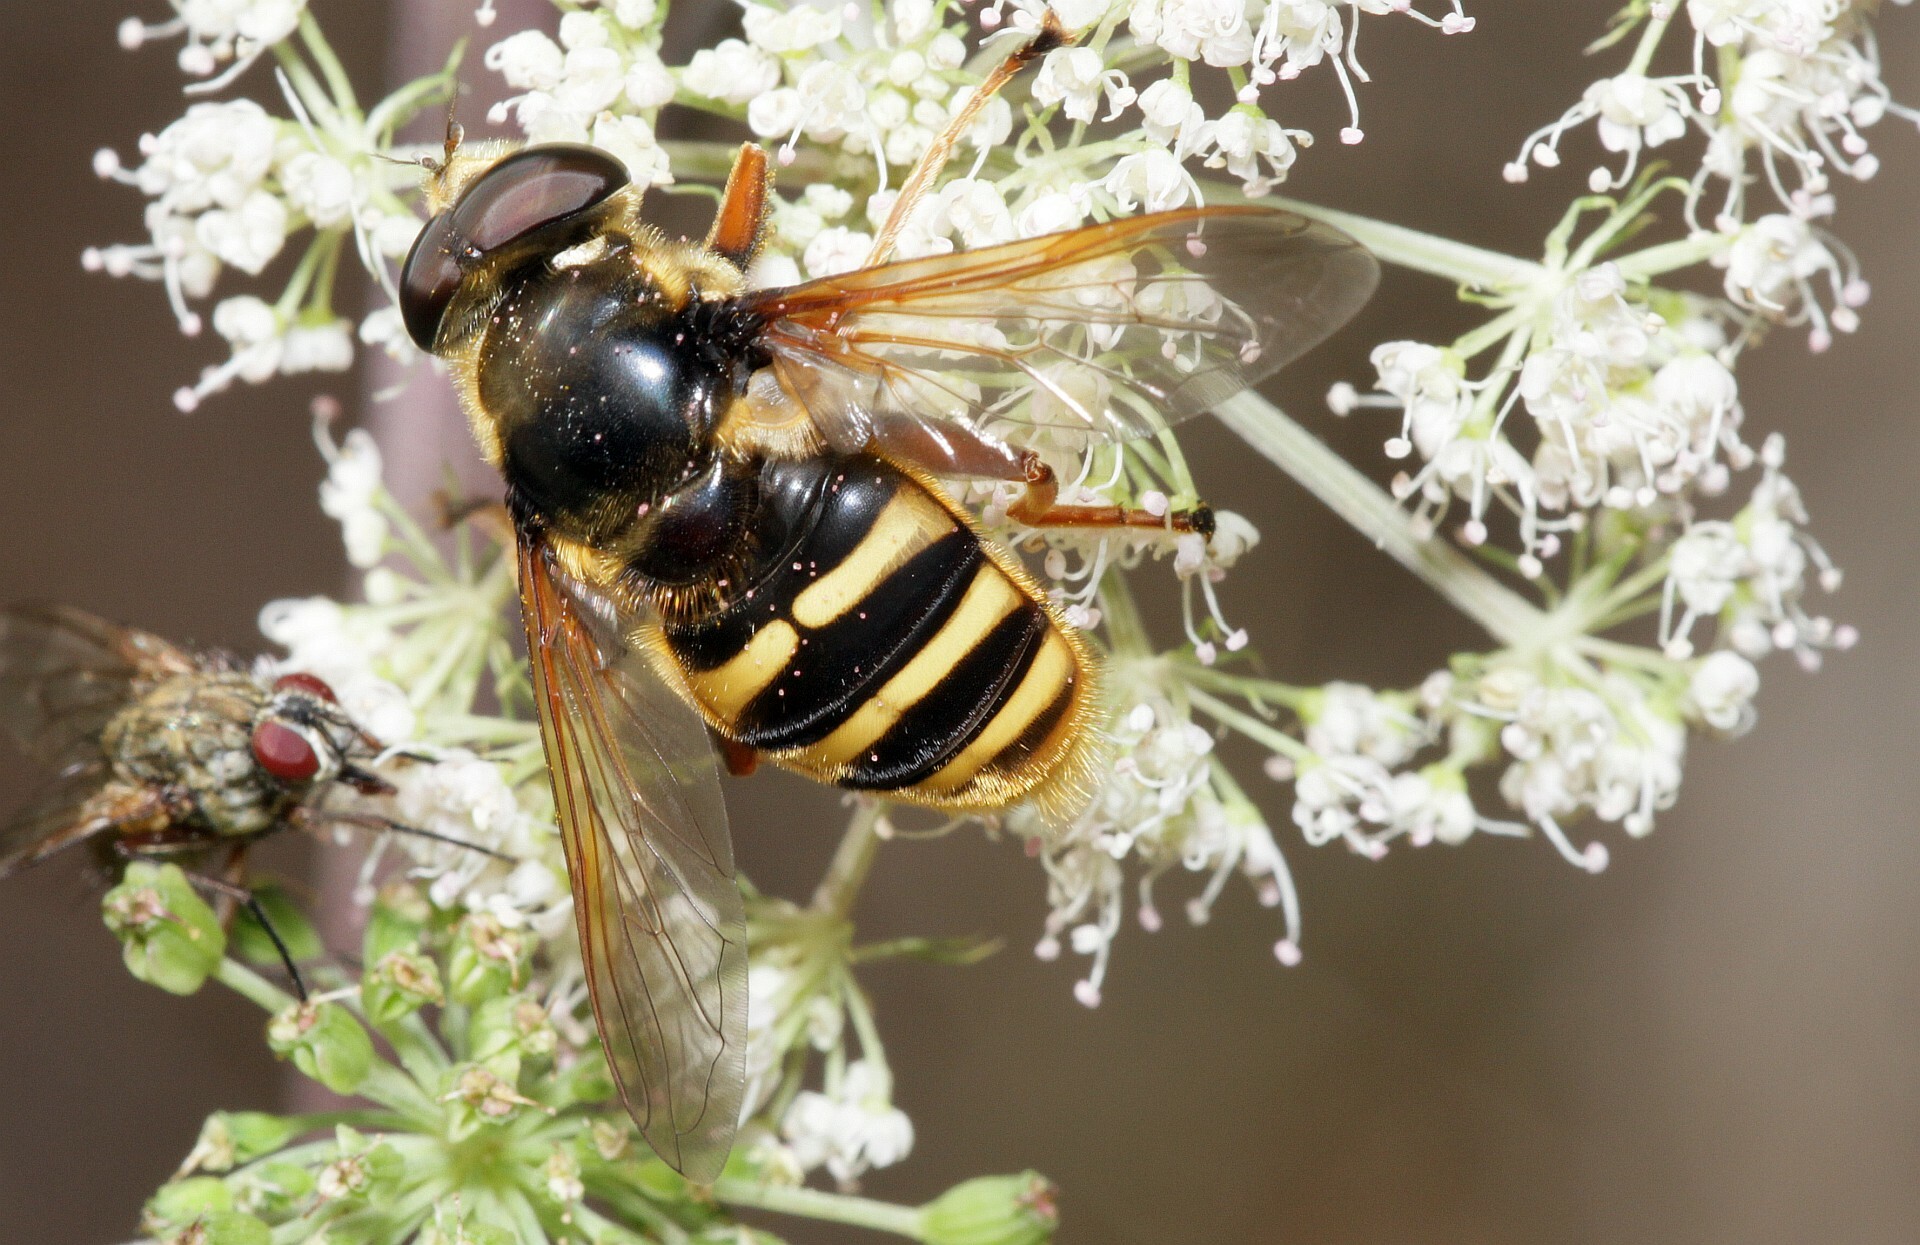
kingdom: Animalia
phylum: Arthropoda
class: Insecta
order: Diptera
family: Syrphidae
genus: Sericomyia
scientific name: Sericomyia silentis
